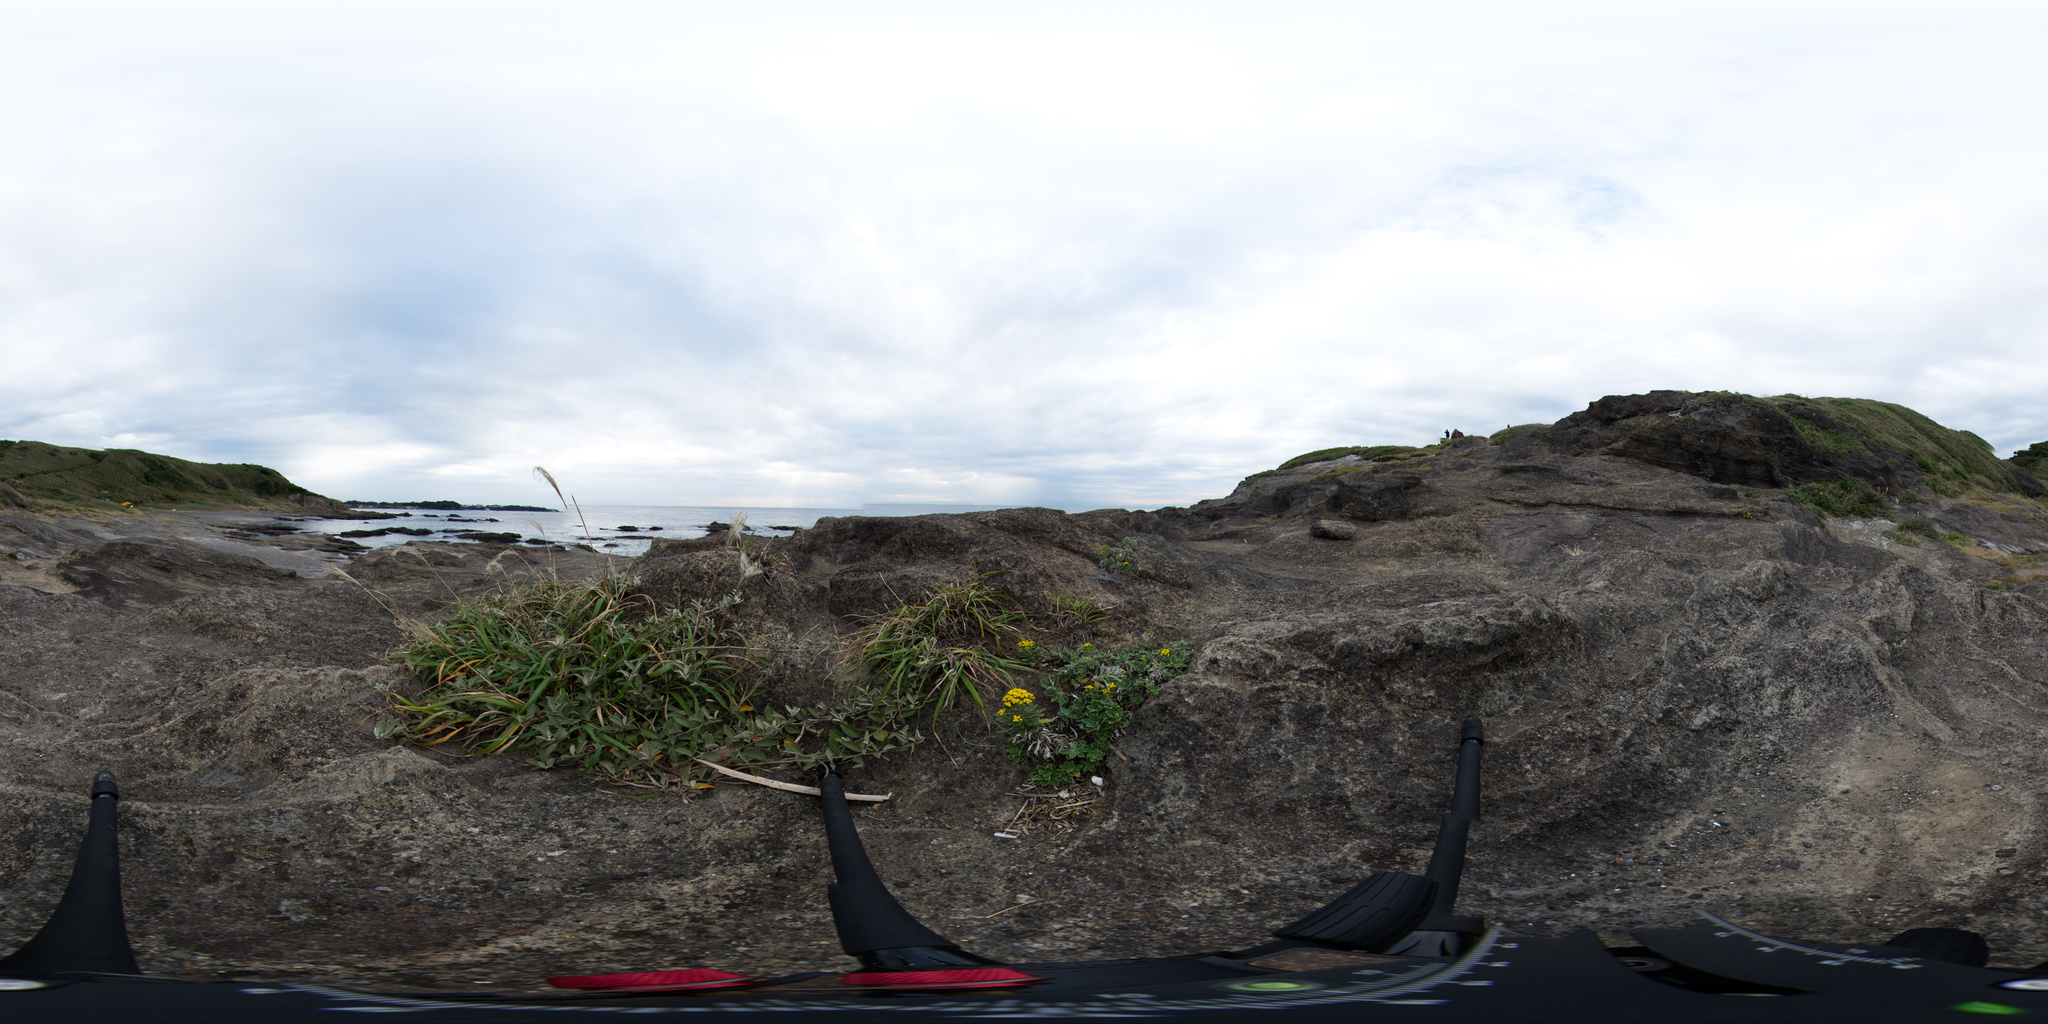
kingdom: Plantae
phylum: Tracheophyta
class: Magnoliopsida
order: Asterales
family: Asteraceae
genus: Ajania
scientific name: Ajania pacifica
